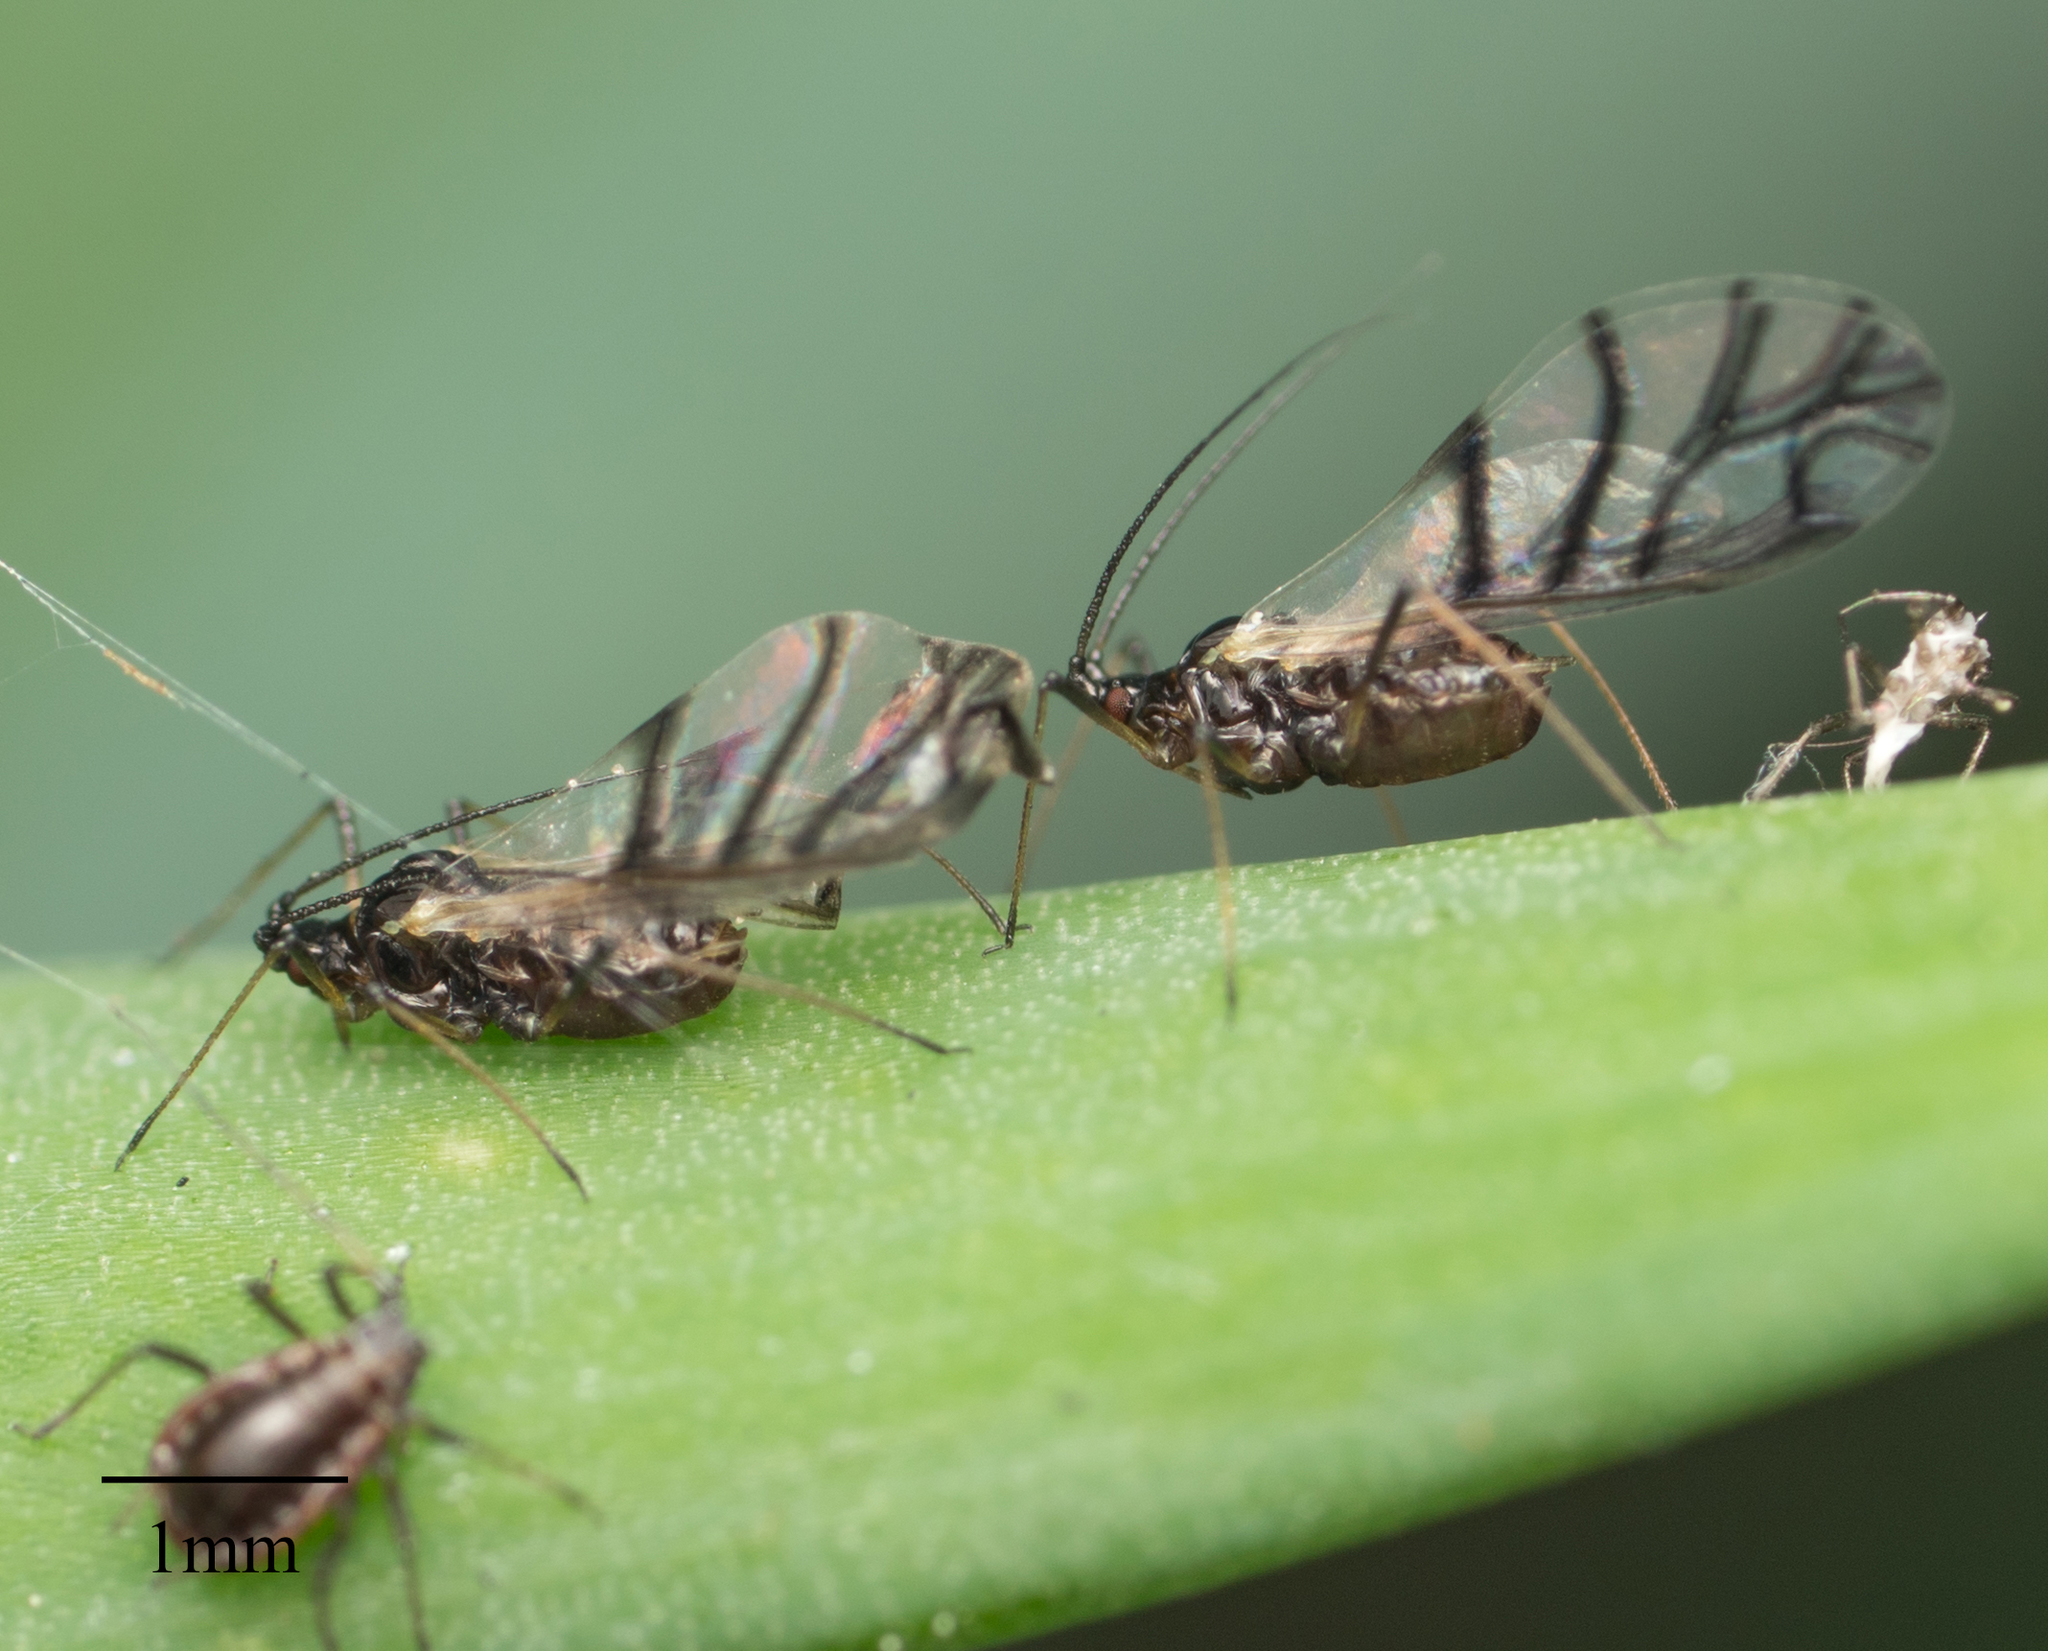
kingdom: Animalia
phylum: Arthropoda
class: Insecta
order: Hemiptera
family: Aphididae
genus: Neotoxoptera
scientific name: Neotoxoptera formosana
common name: Onion aphid
